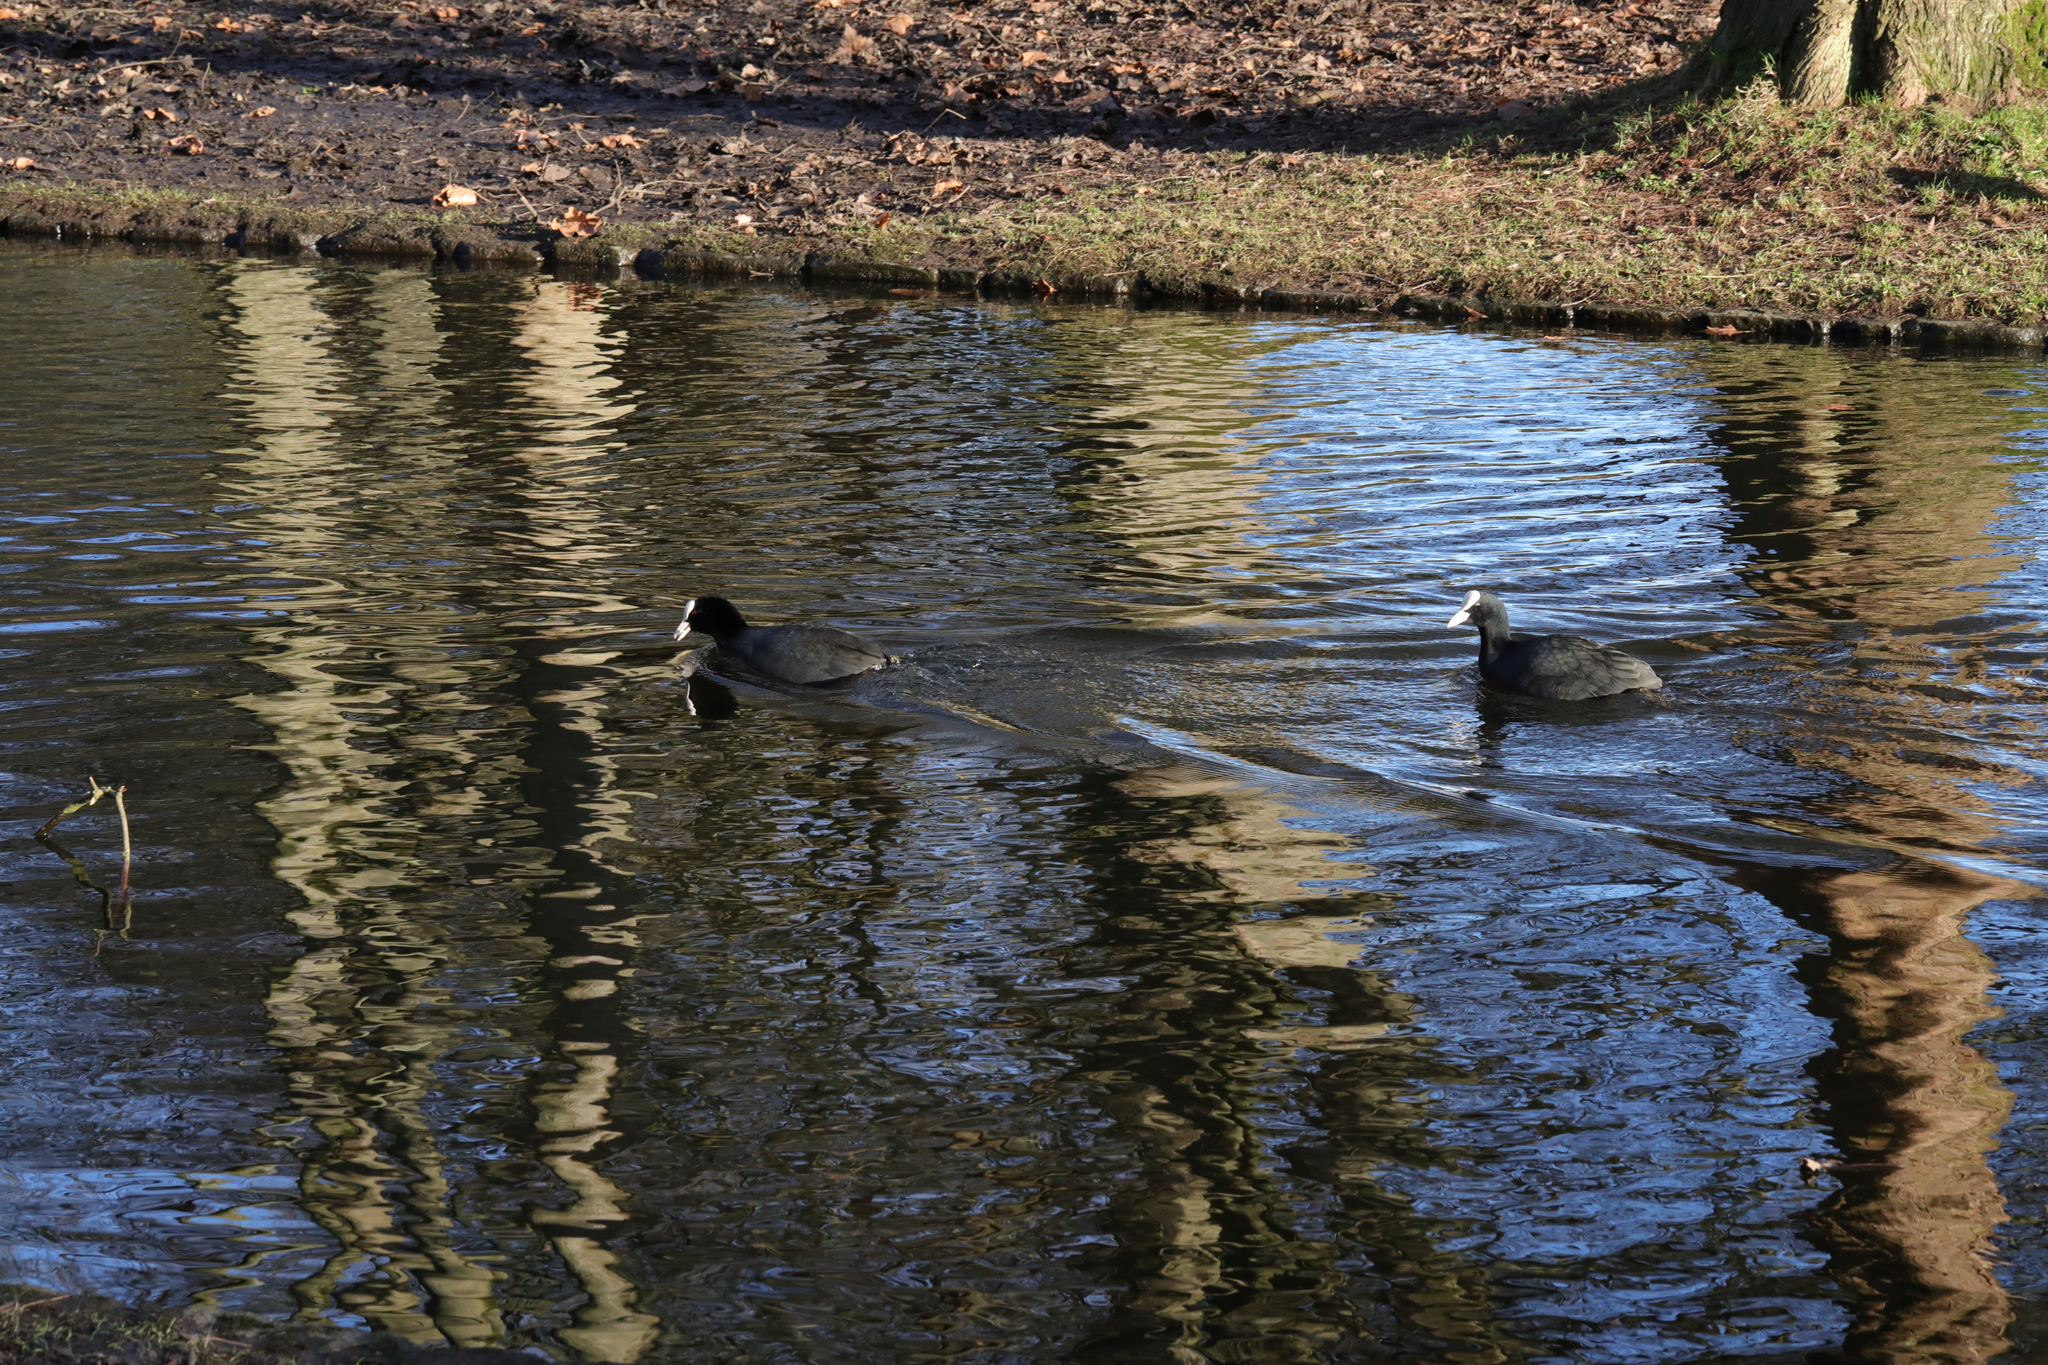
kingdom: Animalia
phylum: Chordata
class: Aves
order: Gruiformes
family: Rallidae
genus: Fulica
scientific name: Fulica atra
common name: Eurasian coot
